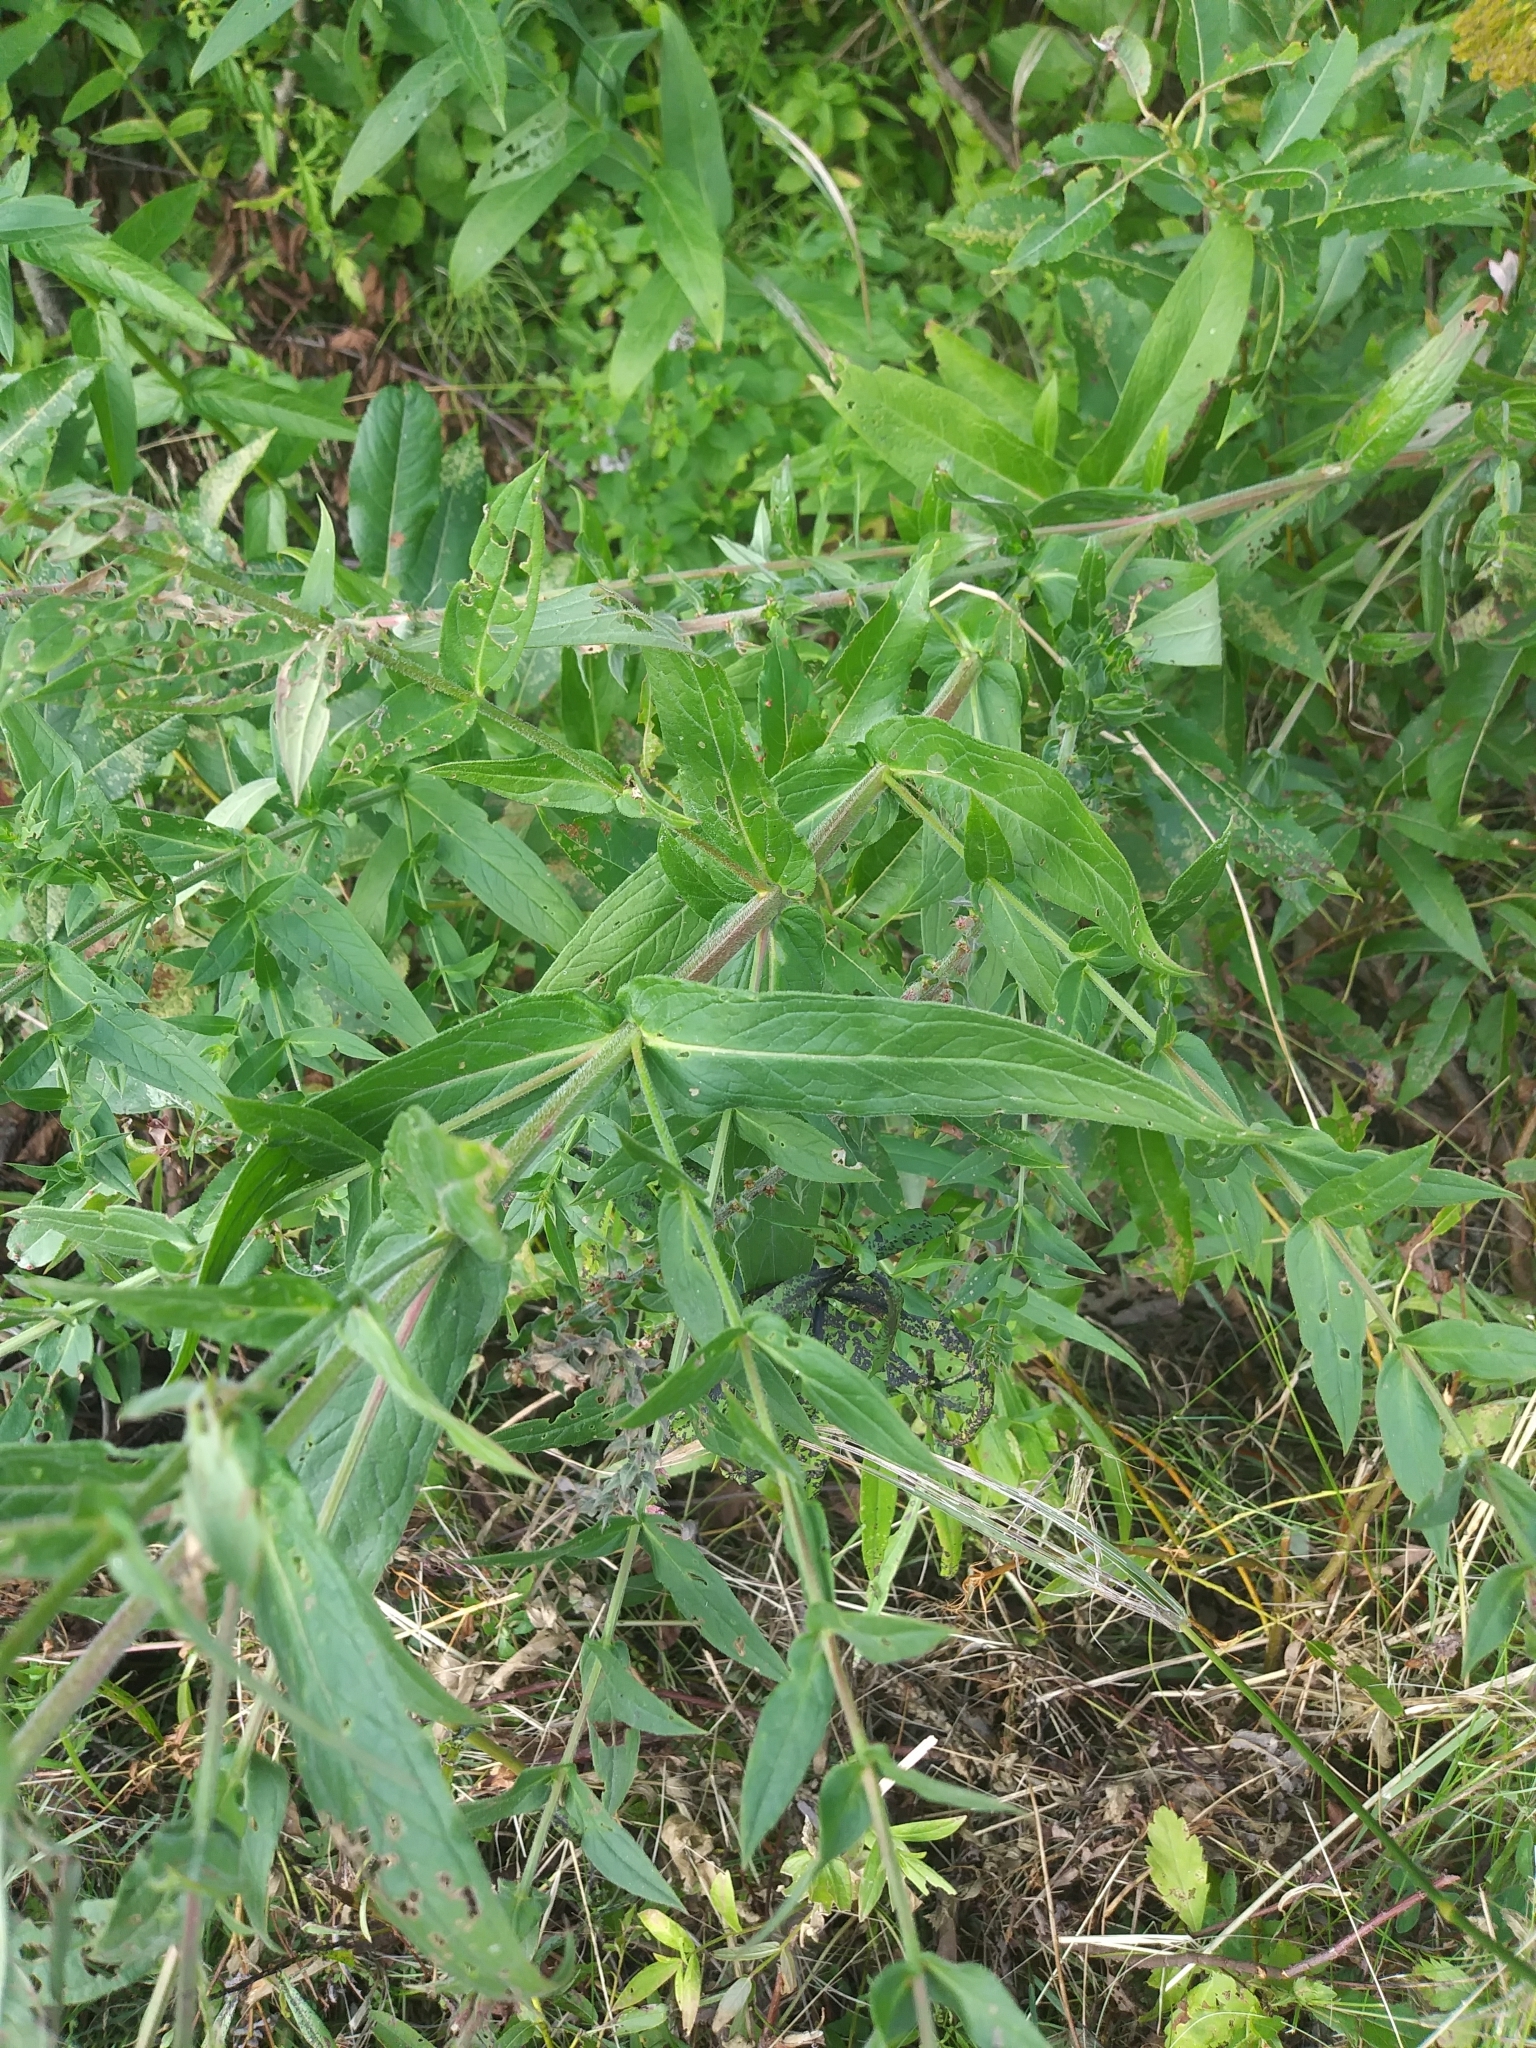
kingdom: Plantae
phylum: Tracheophyta
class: Magnoliopsida
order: Myrtales
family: Lythraceae
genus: Lythrum
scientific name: Lythrum salicaria
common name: Purple loosestrife
